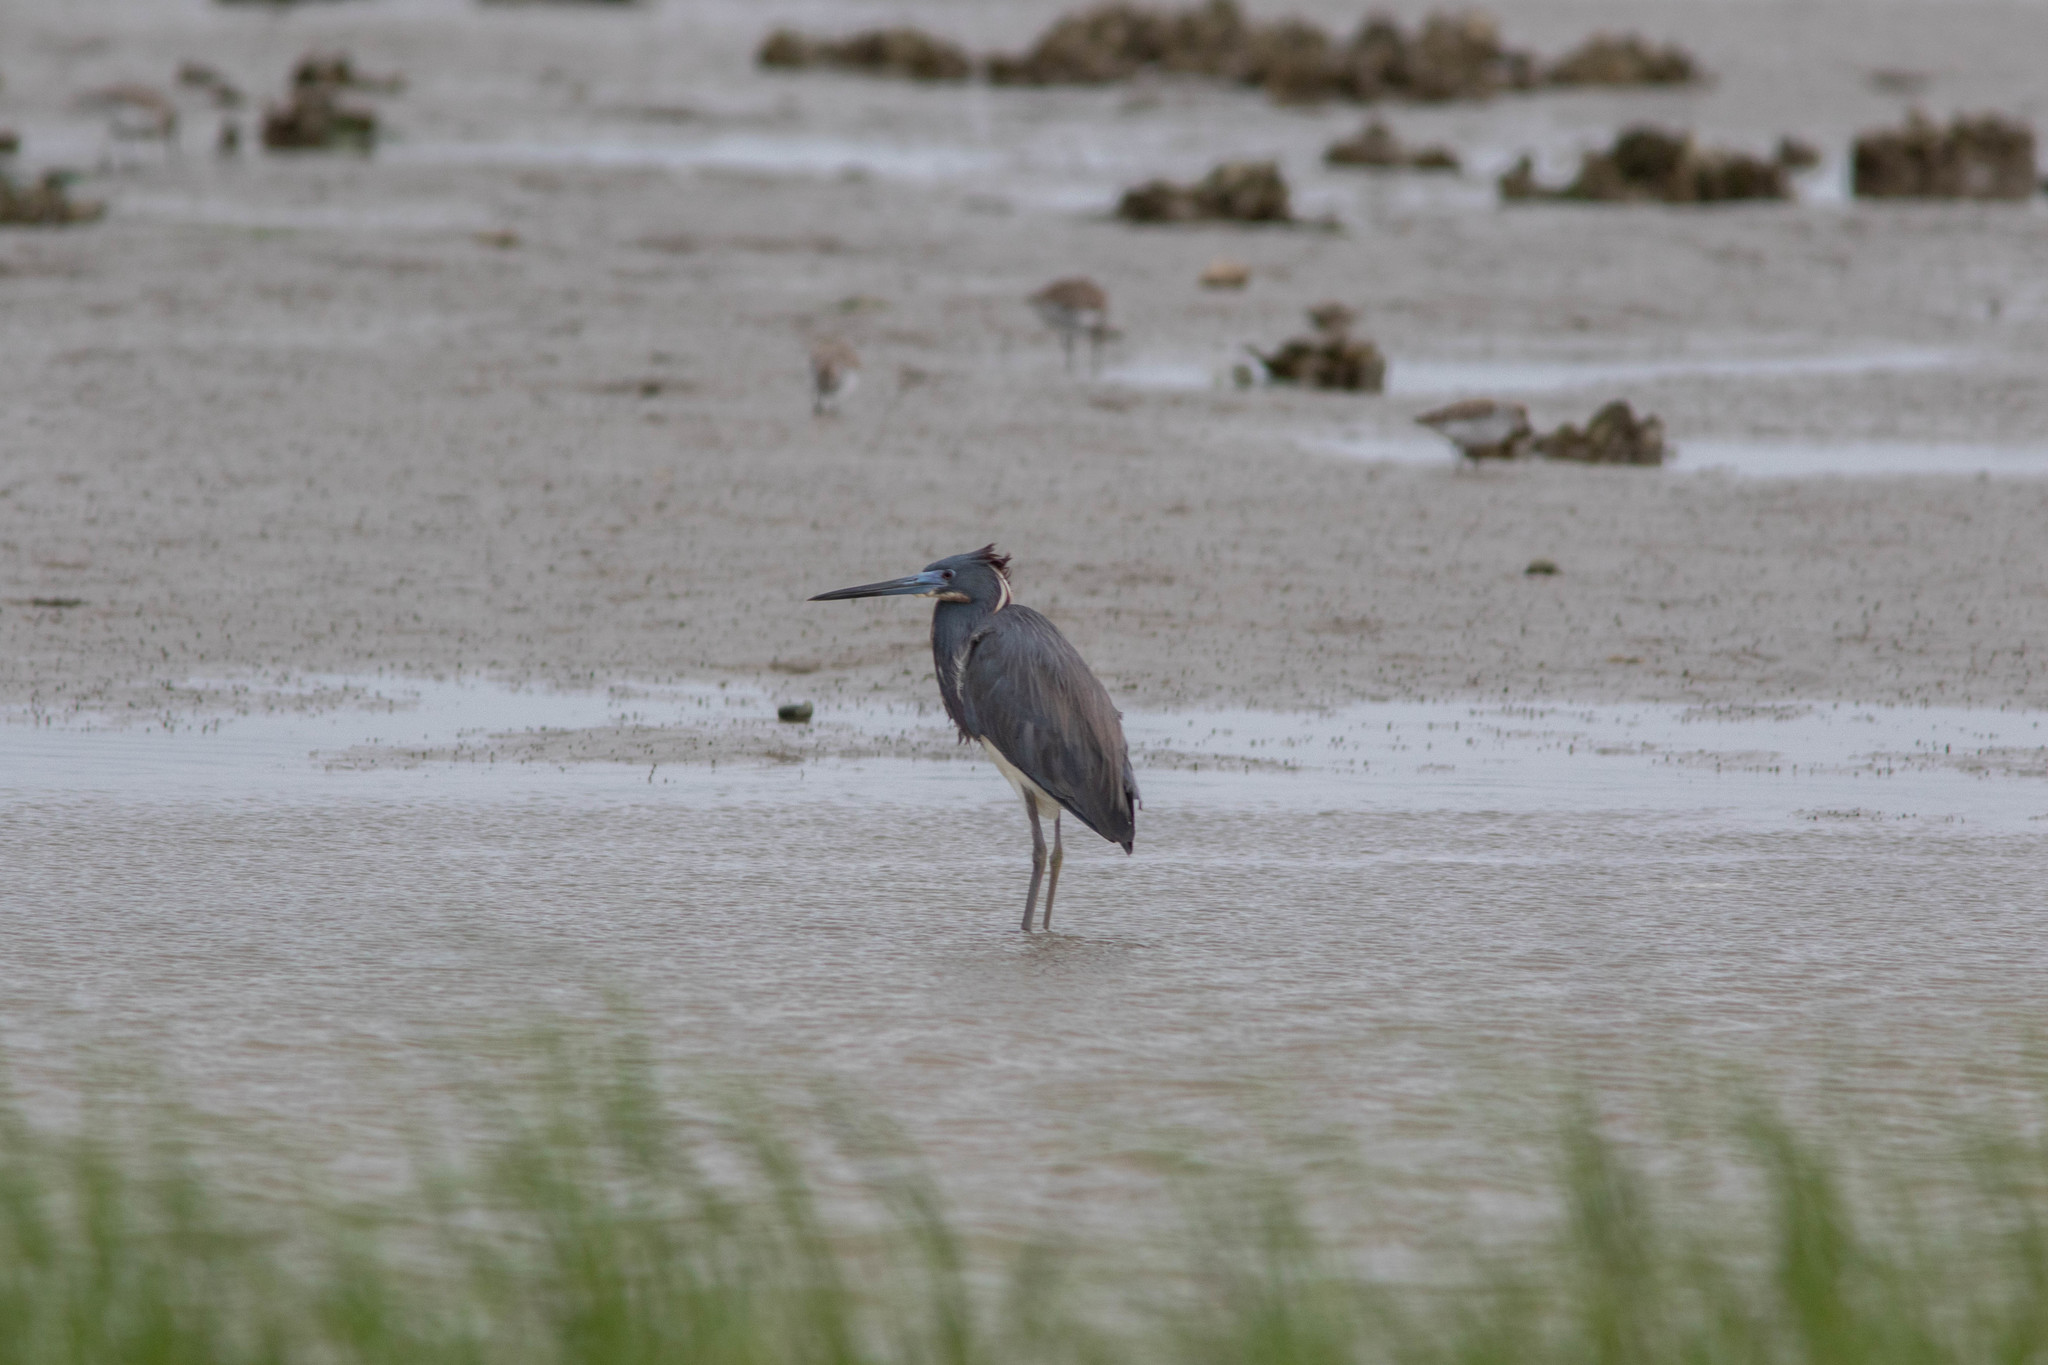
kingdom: Animalia
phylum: Chordata
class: Aves
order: Pelecaniformes
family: Ardeidae
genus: Egretta
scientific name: Egretta tricolor
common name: Tricolored heron
